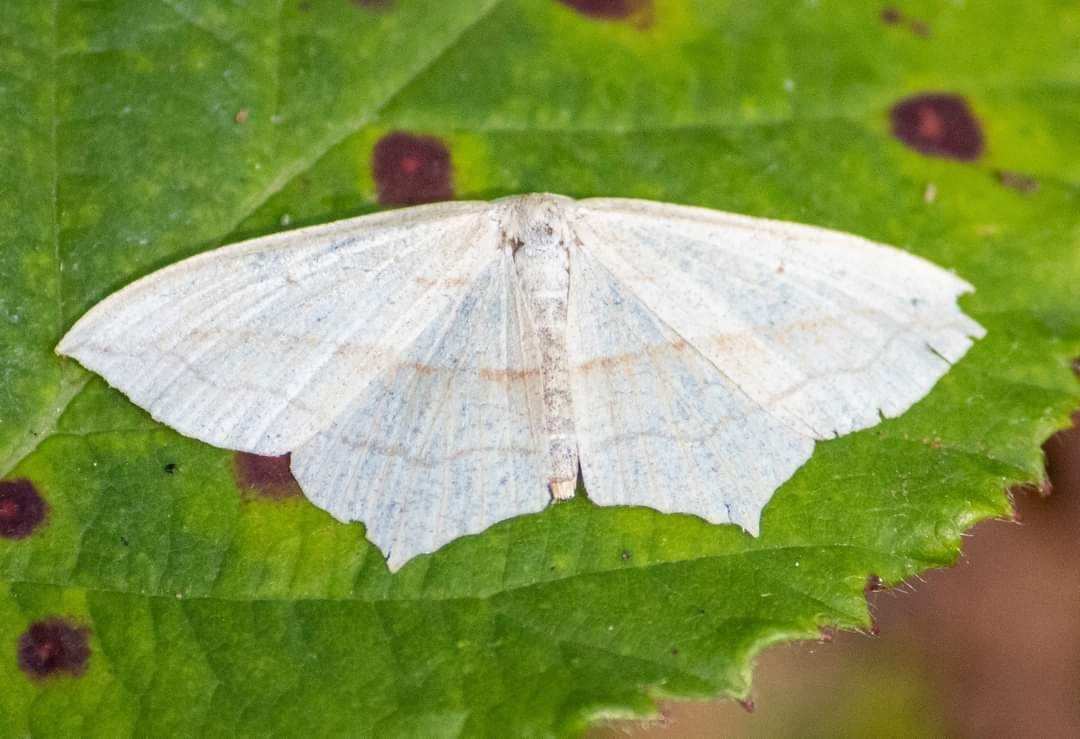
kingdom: Animalia
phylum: Arthropoda
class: Insecta
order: Lepidoptera
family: Geometridae
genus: Timandra
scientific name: Timandra comae
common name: Blood-vein
